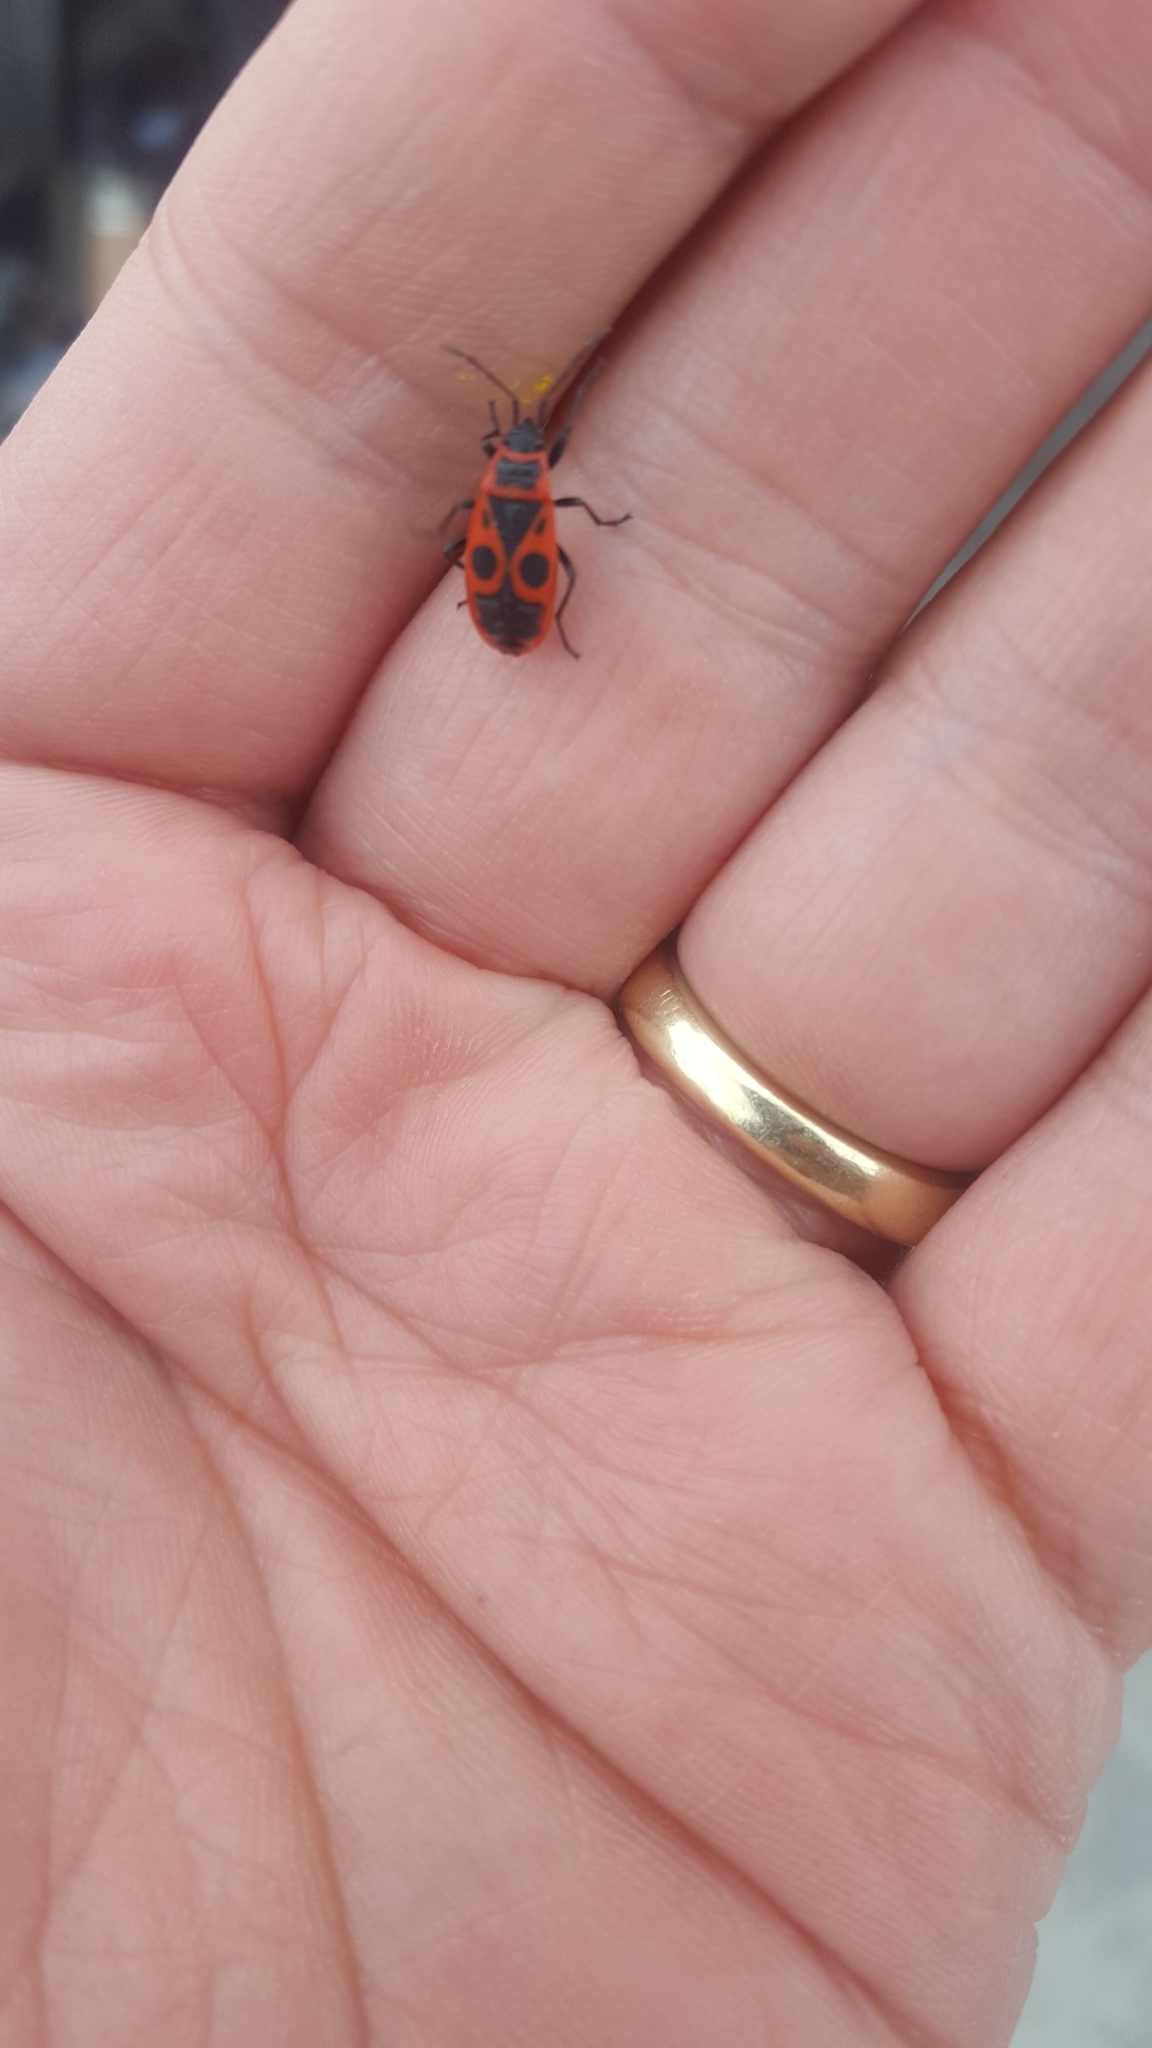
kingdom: Animalia
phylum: Arthropoda
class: Insecta
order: Hemiptera
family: Pyrrhocoridae
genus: Pyrrhocoris
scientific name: Pyrrhocoris apterus
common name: Firebug
